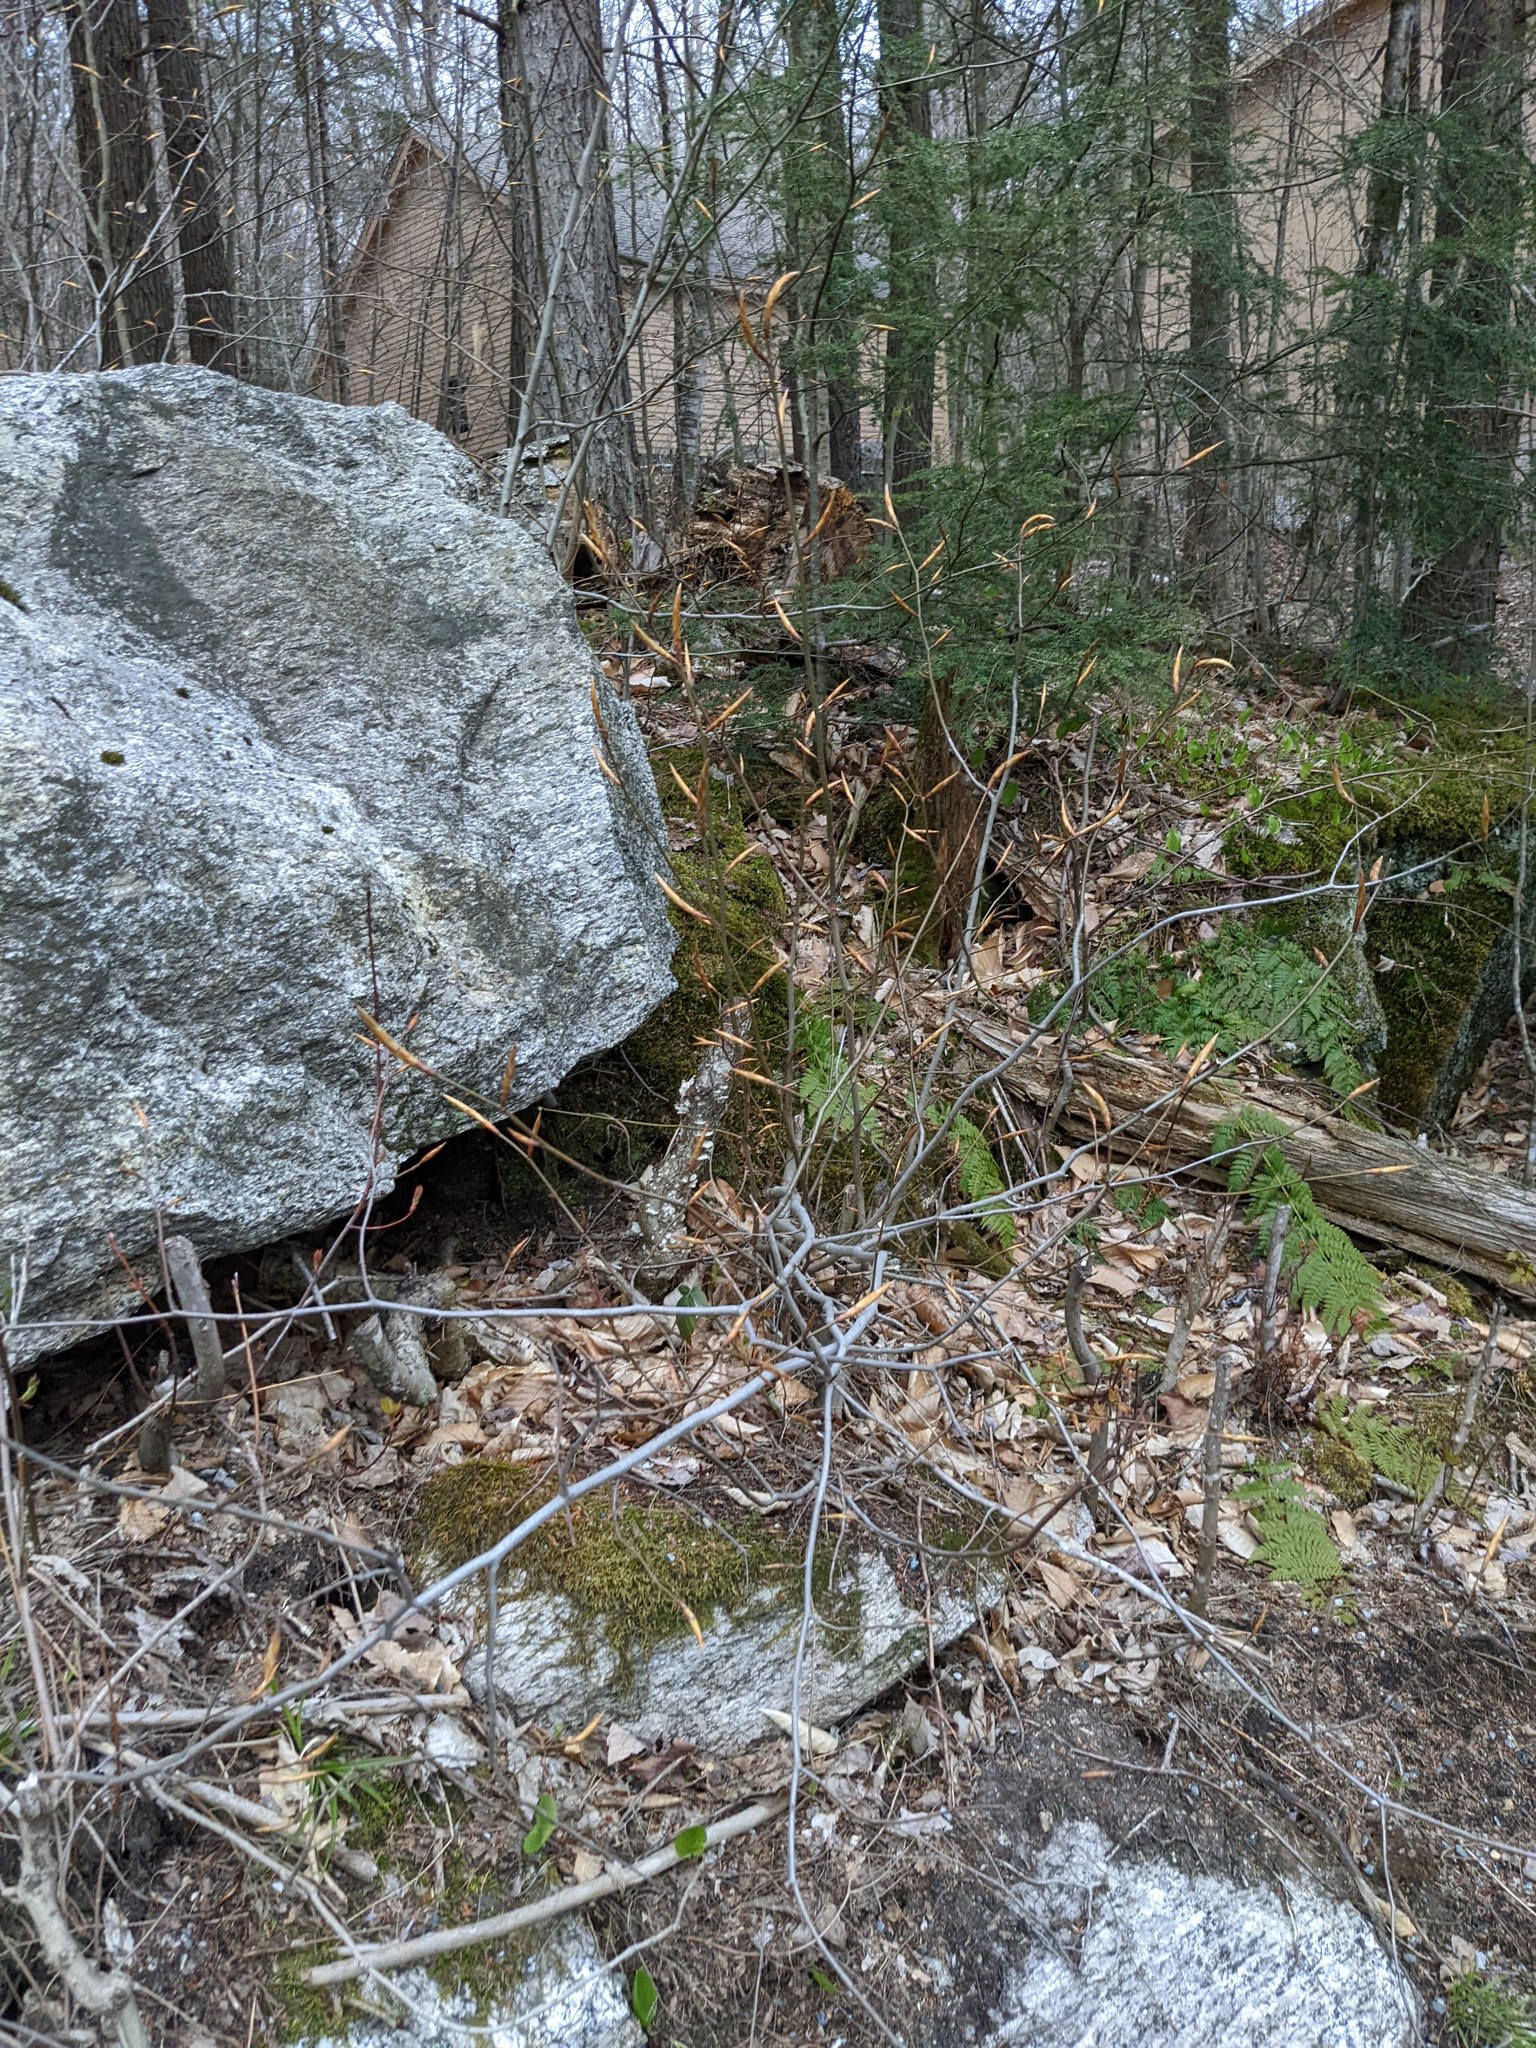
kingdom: Plantae
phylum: Tracheophyta
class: Magnoliopsida
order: Fagales
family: Fagaceae
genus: Fagus
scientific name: Fagus grandifolia
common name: American beech
